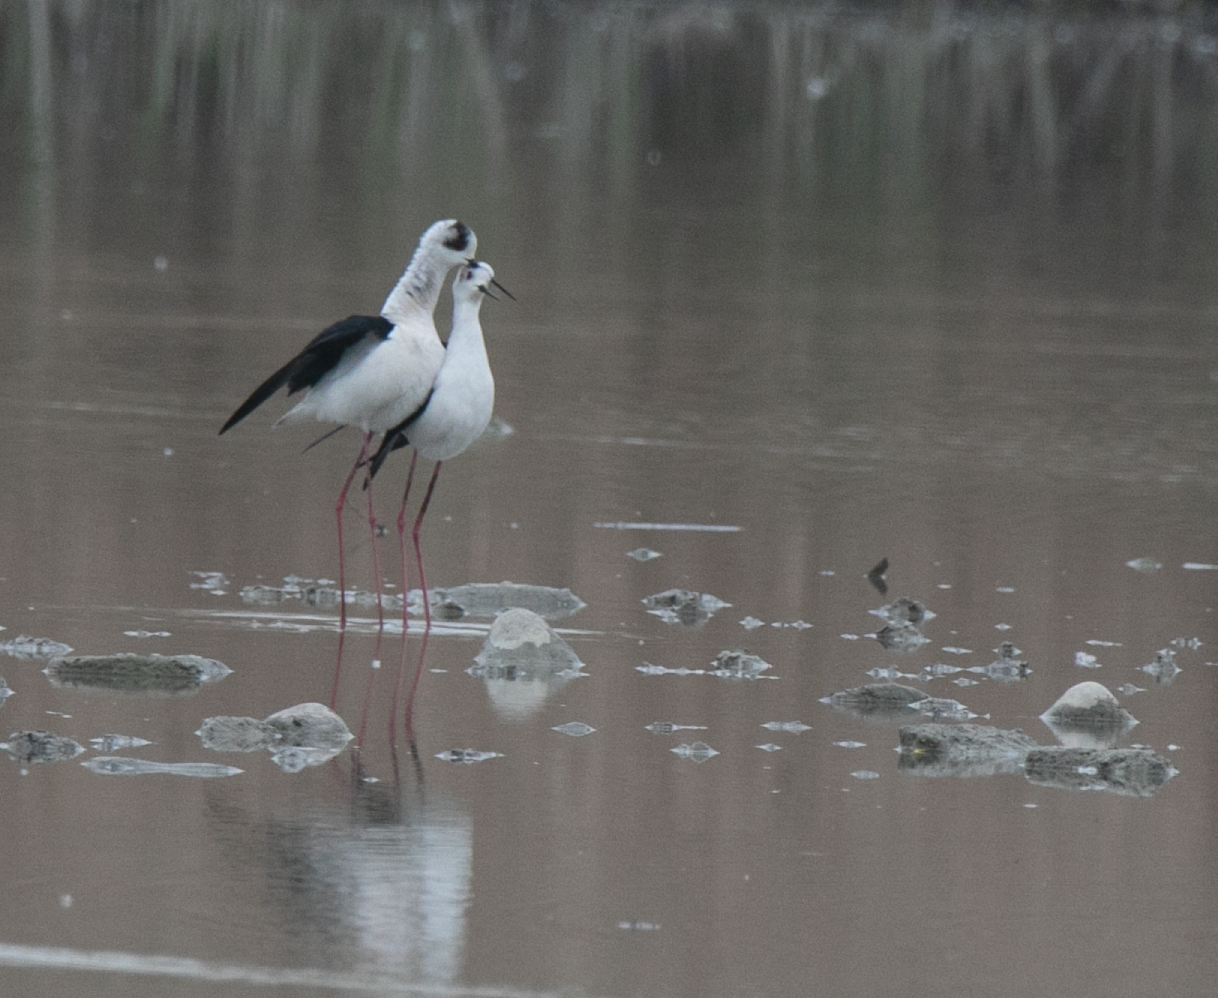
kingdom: Animalia
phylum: Chordata
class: Aves
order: Charadriiformes
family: Recurvirostridae
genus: Himantopus
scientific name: Himantopus himantopus
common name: Black-winged stilt
